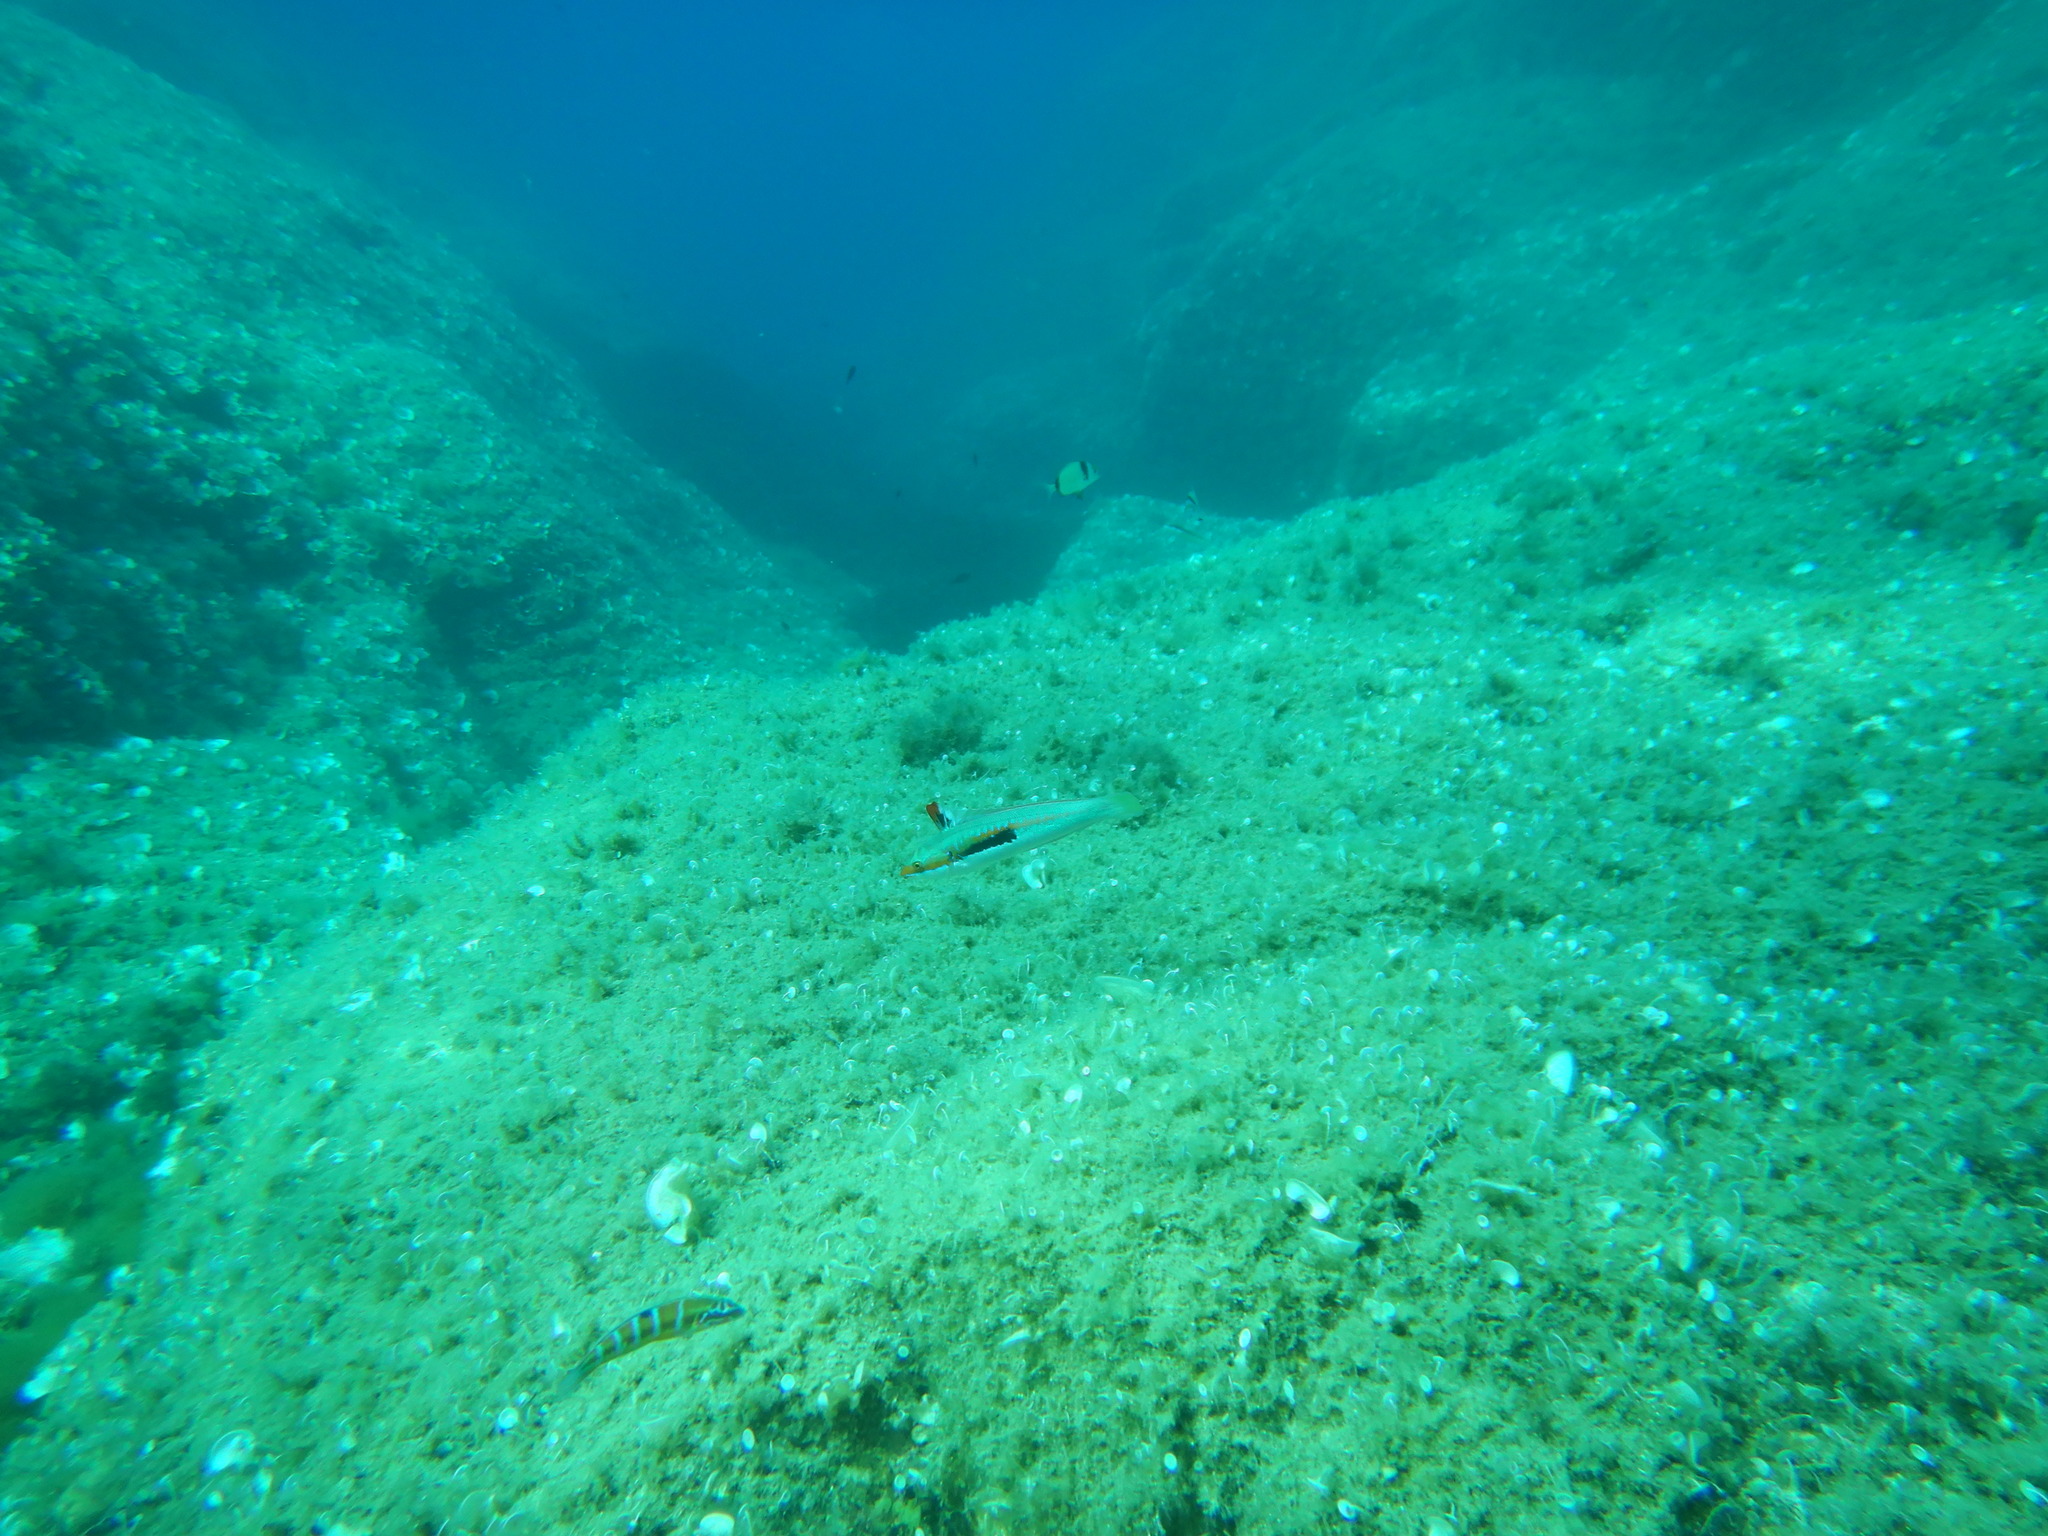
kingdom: Animalia
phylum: Chordata
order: Perciformes
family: Labridae
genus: Coris
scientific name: Coris julis
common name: Rainbow wrasse
